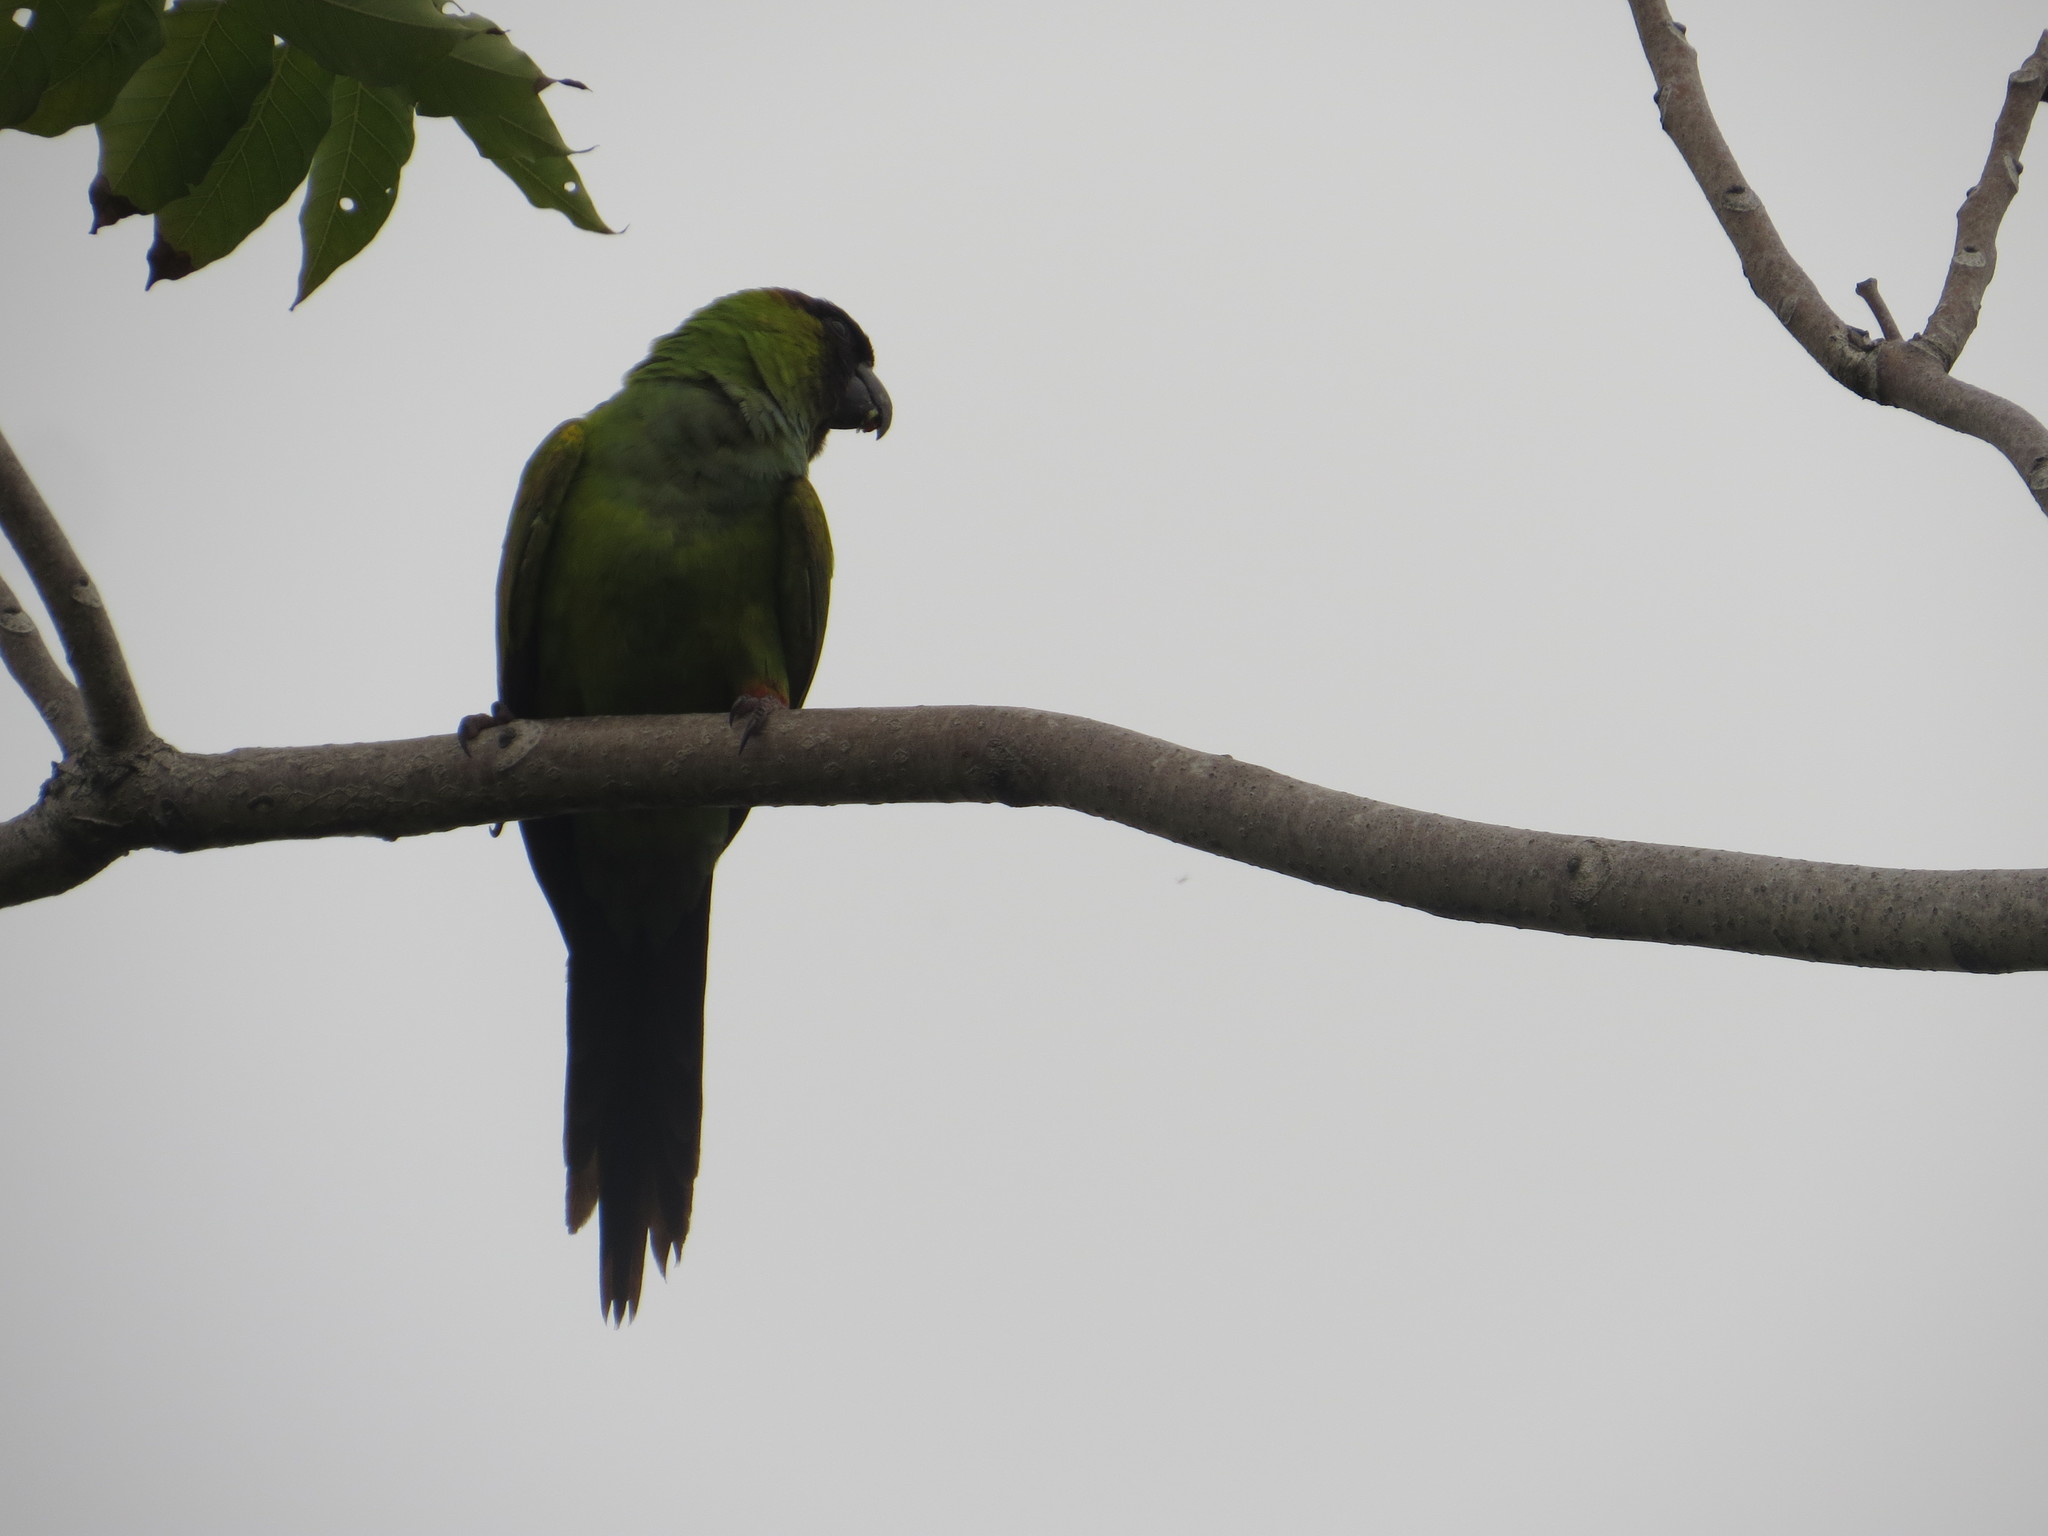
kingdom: Animalia
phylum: Chordata
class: Aves
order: Psittaciformes
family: Psittacidae
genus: Nandayus
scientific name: Nandayus nenday
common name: Nanday parakeet
